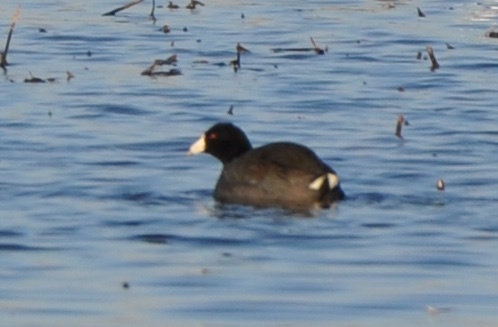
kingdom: Animalia
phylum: Chordata
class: Aves
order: Gruiformes
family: Rallidae
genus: Fulica
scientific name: Fulica americana
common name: American coot
